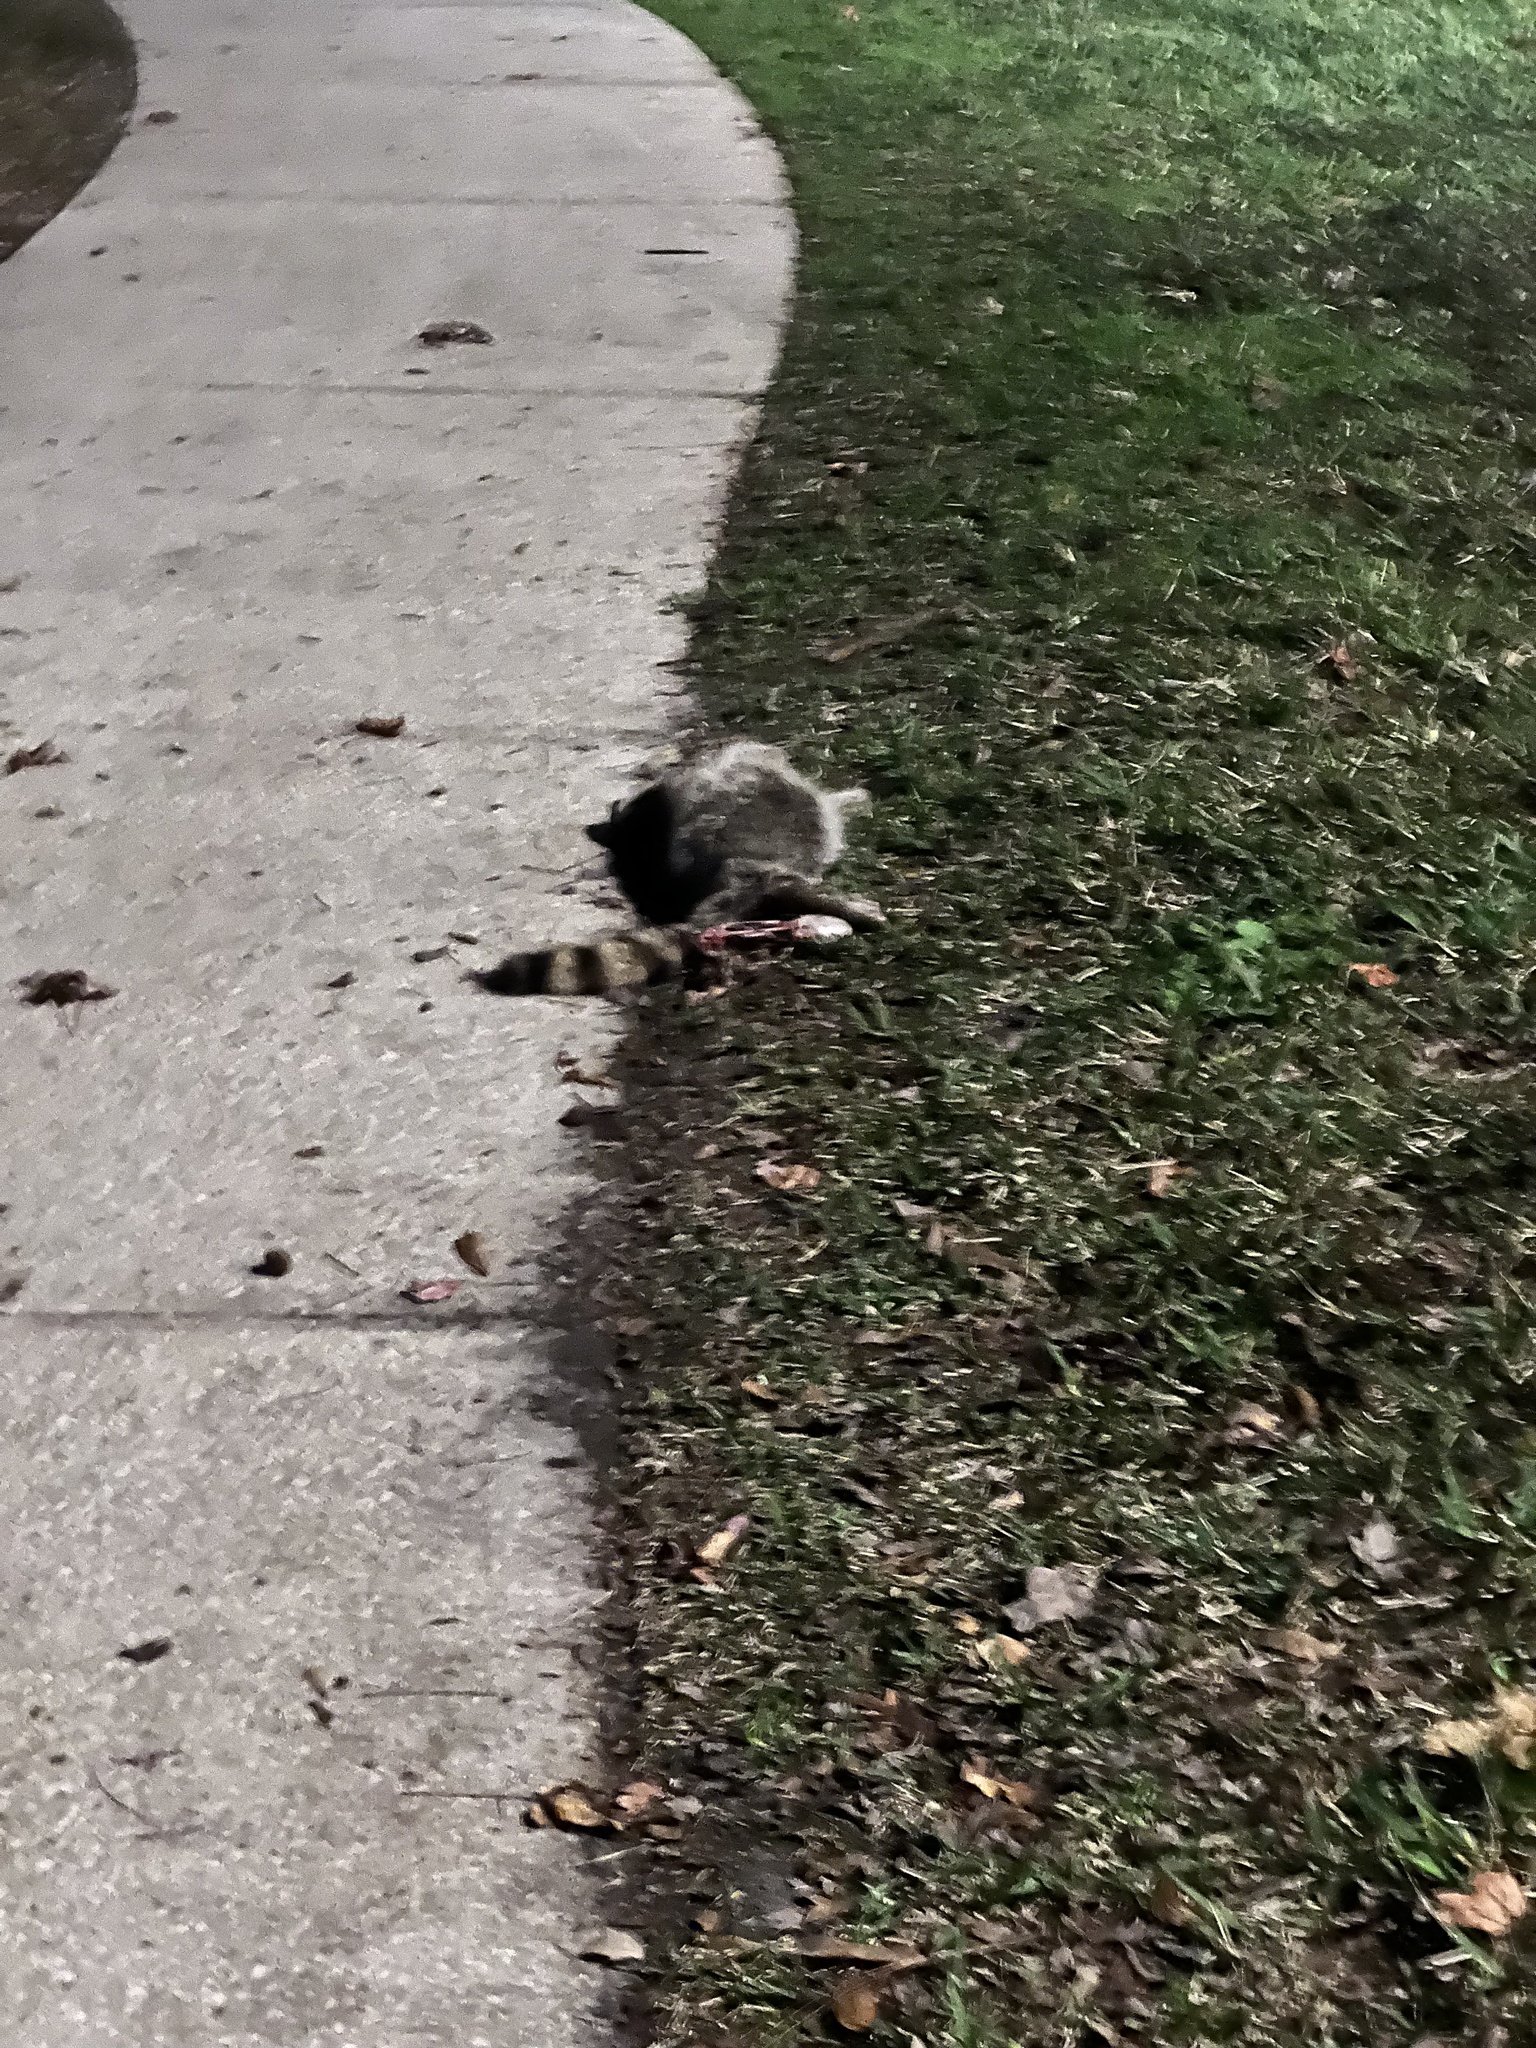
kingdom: Animalia
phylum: Chordata
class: Mammalia
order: Carnivora
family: Procyonidae
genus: Procyon
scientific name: Procyon lotor
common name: Raccoon
